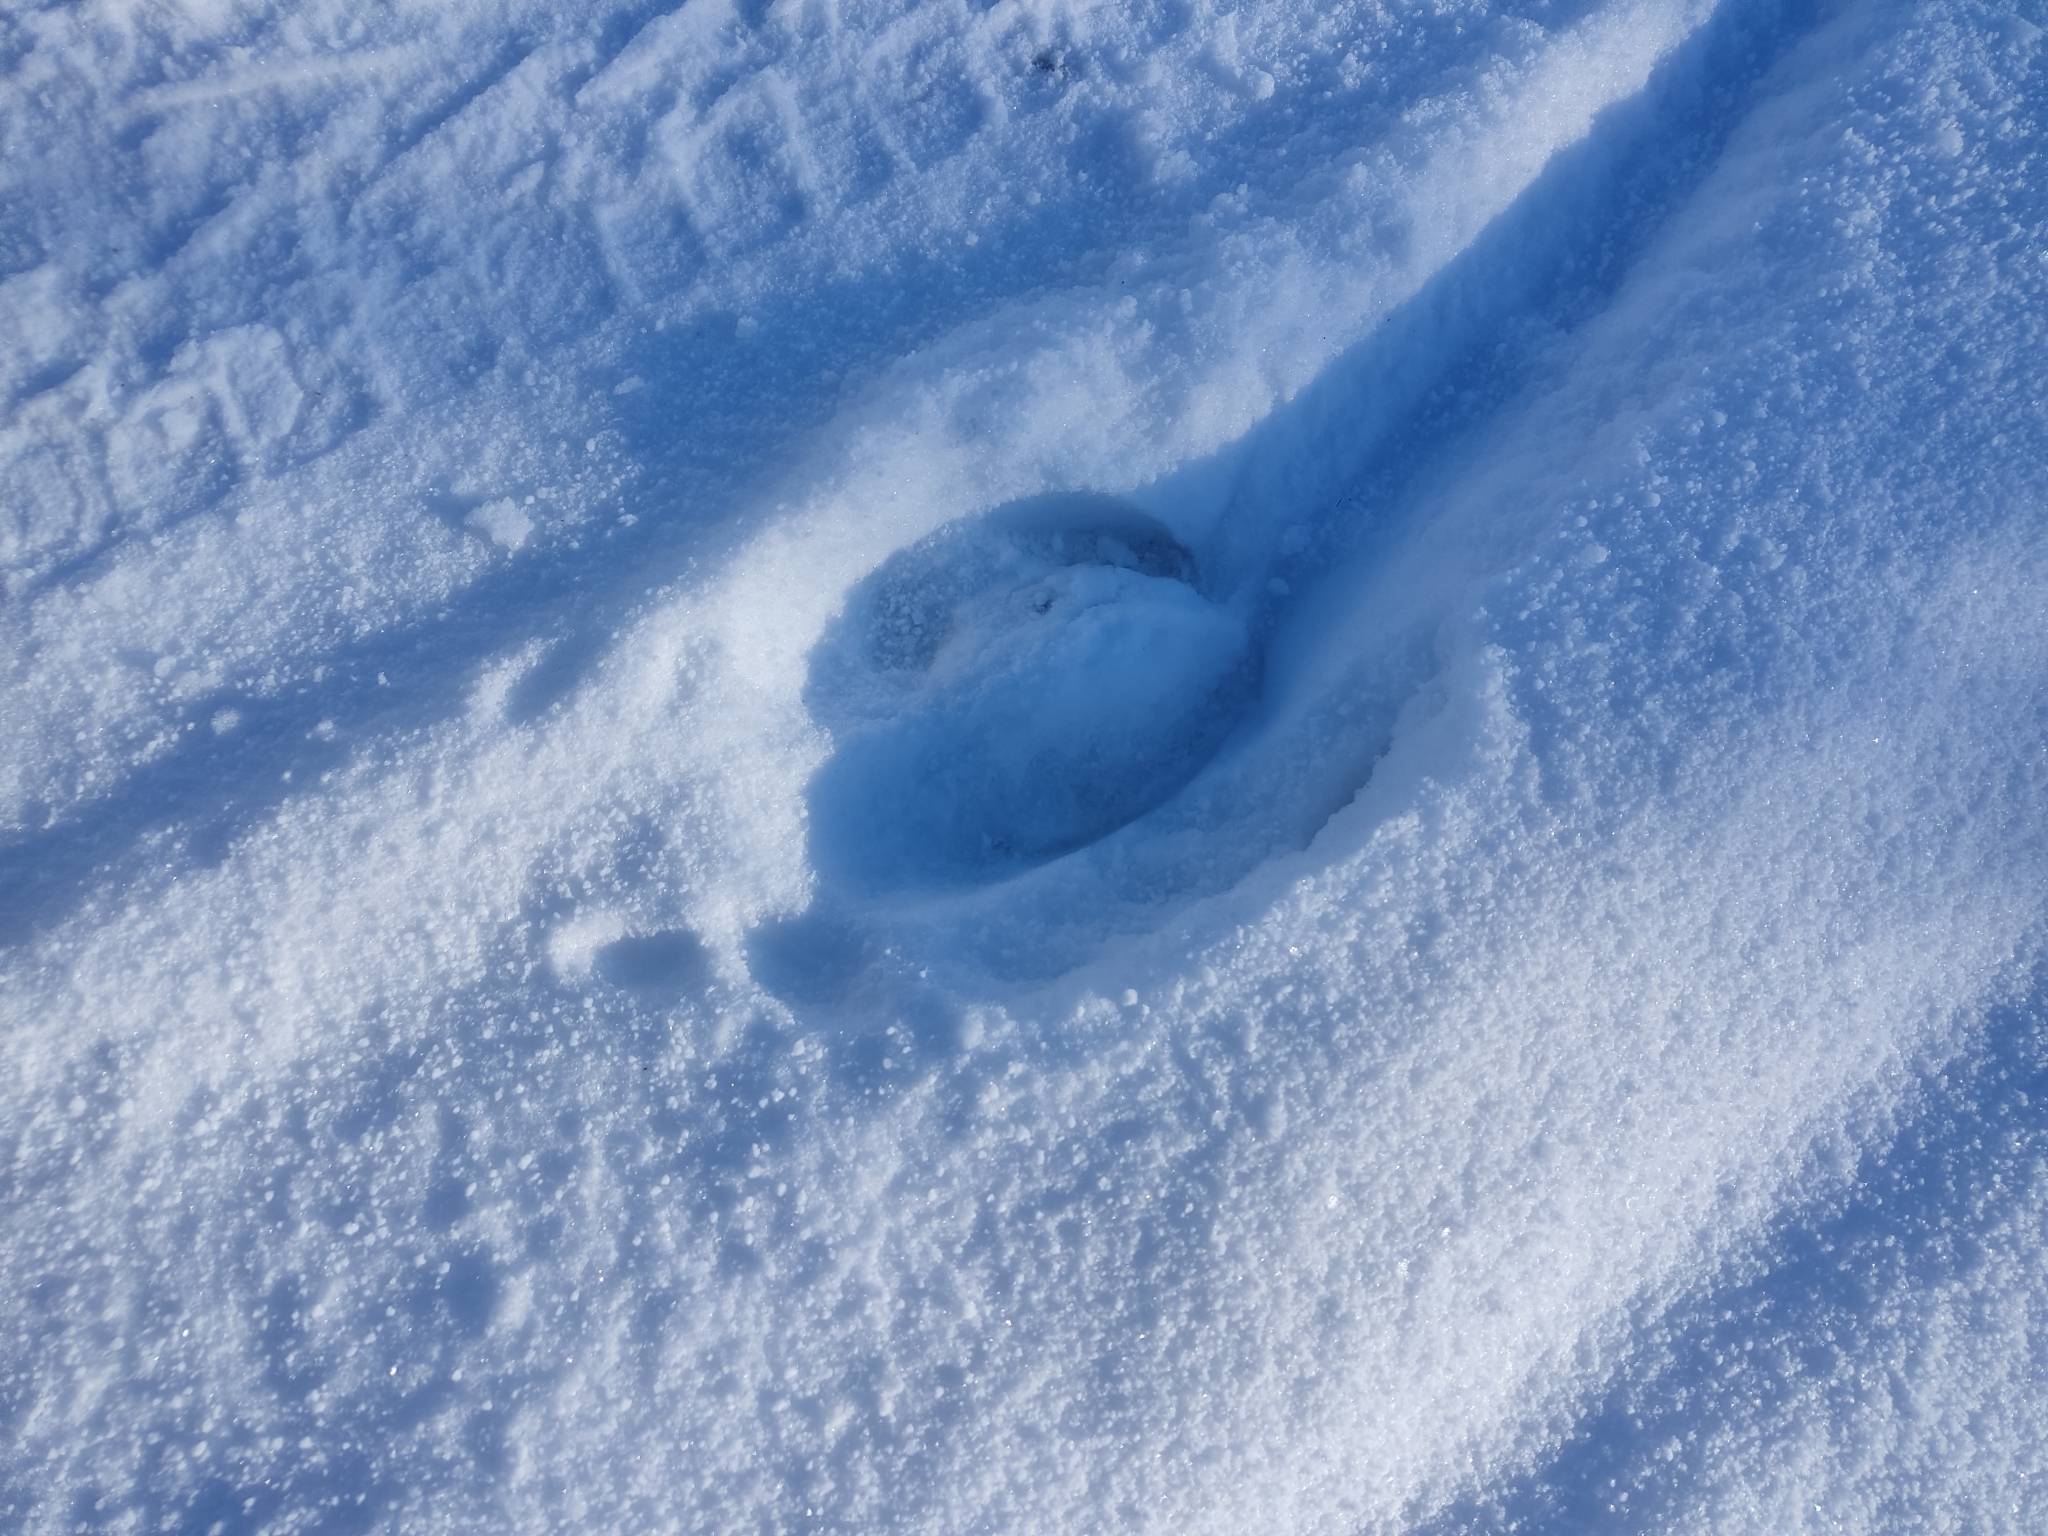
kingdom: Animalia
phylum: Chordata
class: Mammalia
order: Artiodactyla
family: Bovidae
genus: Bison
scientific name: Bison bonasus
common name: European bison
